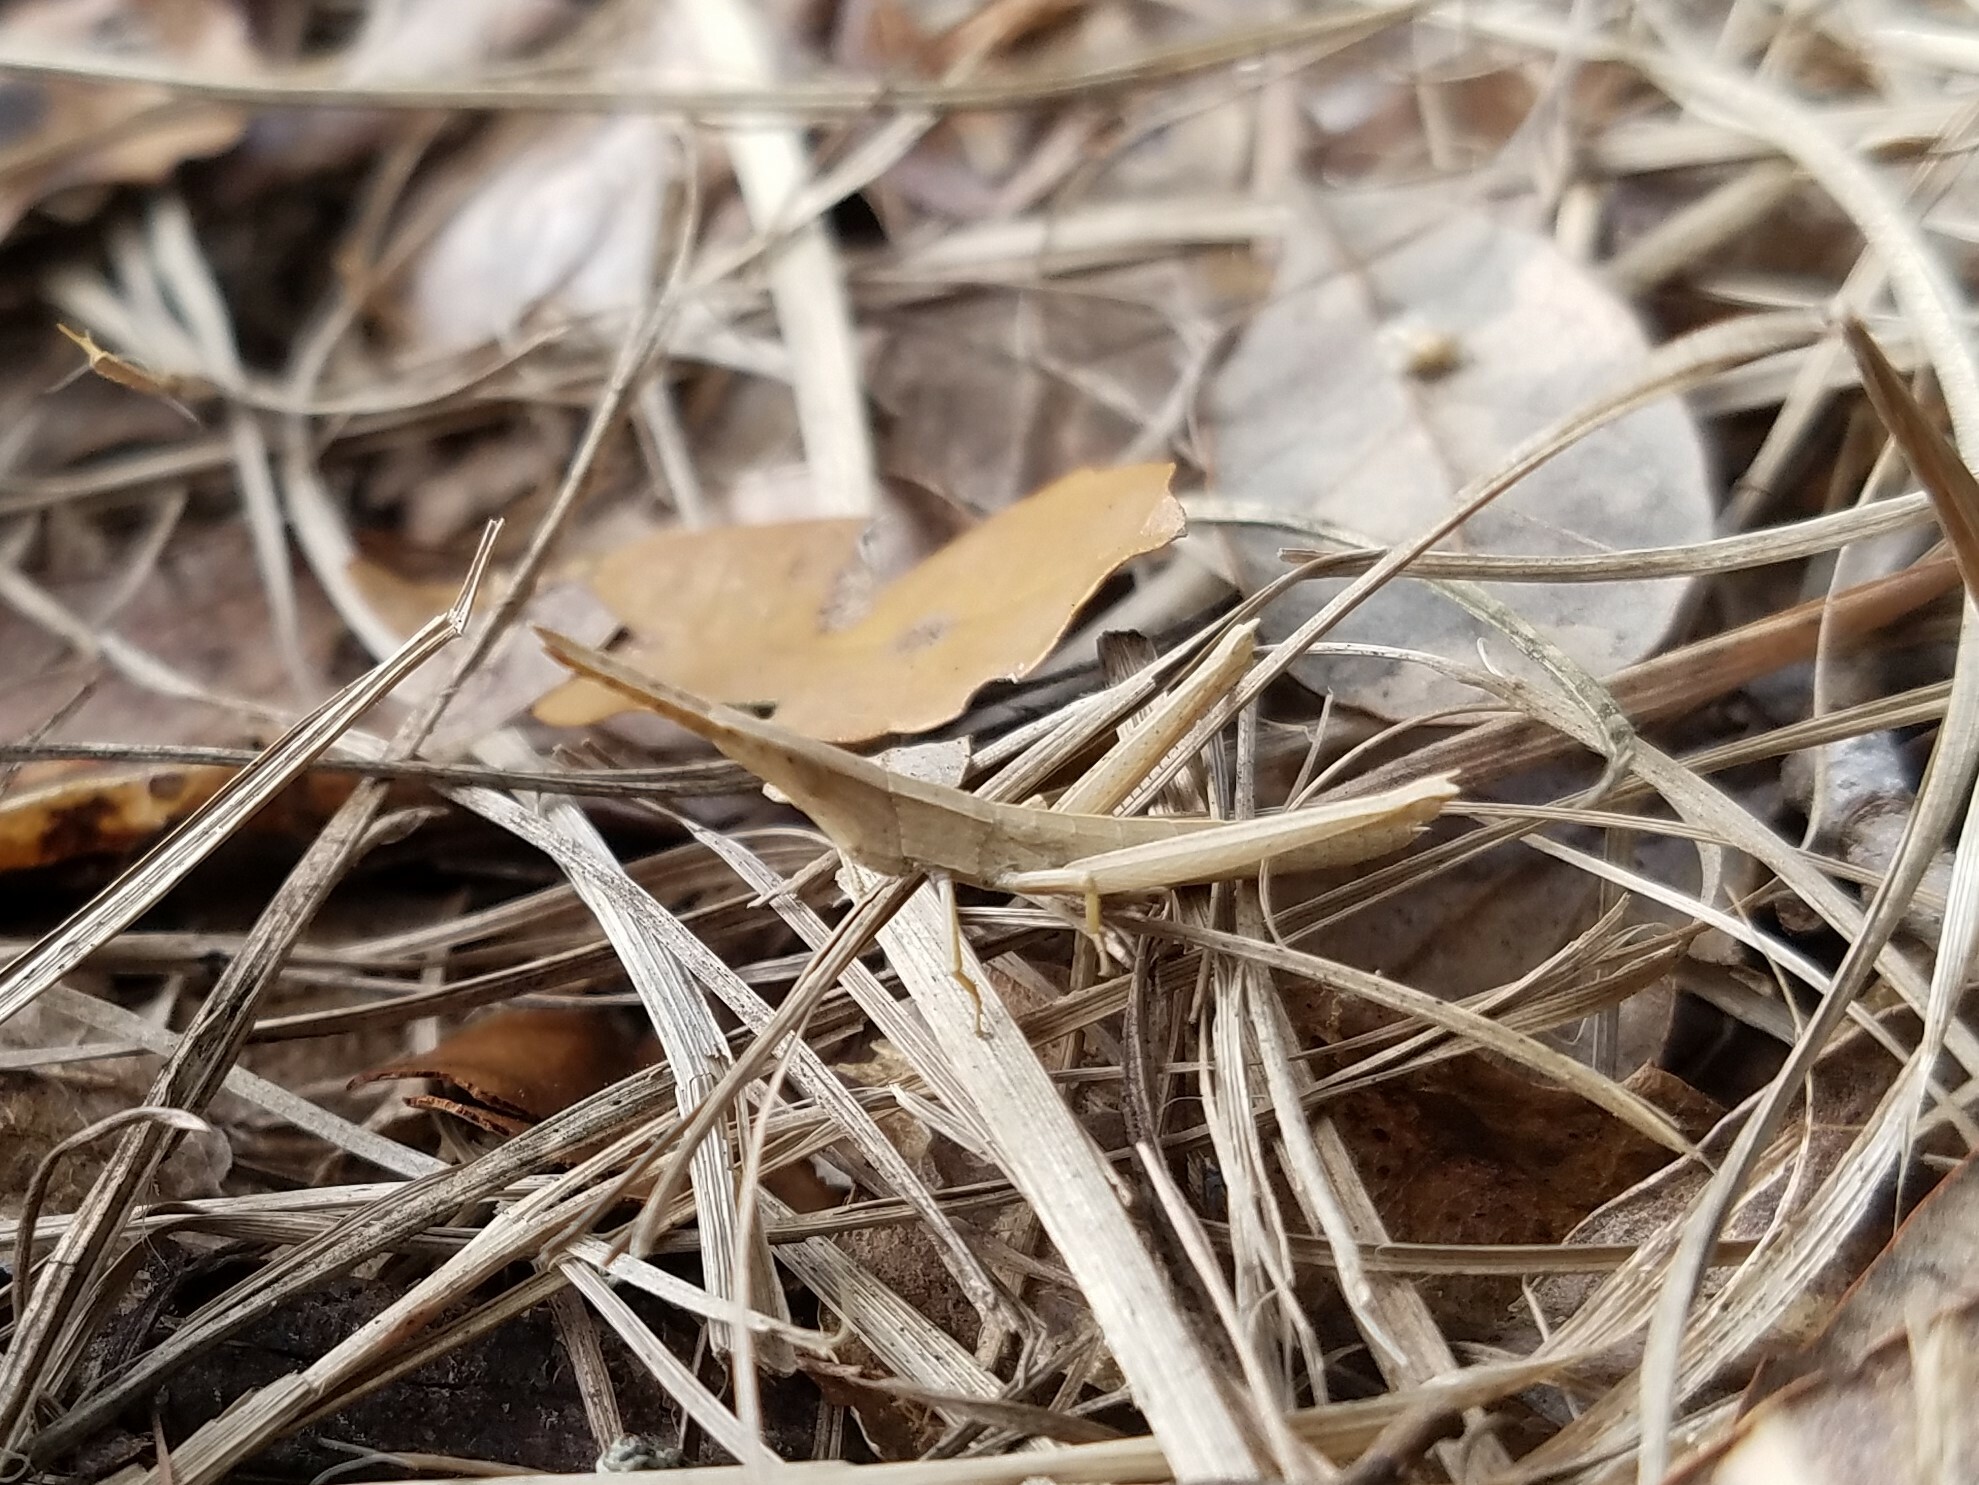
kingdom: Animalia
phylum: Arthropoda
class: Insecta
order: Orthoptera
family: Acrididae
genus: Achurum
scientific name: Achurum carinatum
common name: Long-headed toothpick grasshopper
